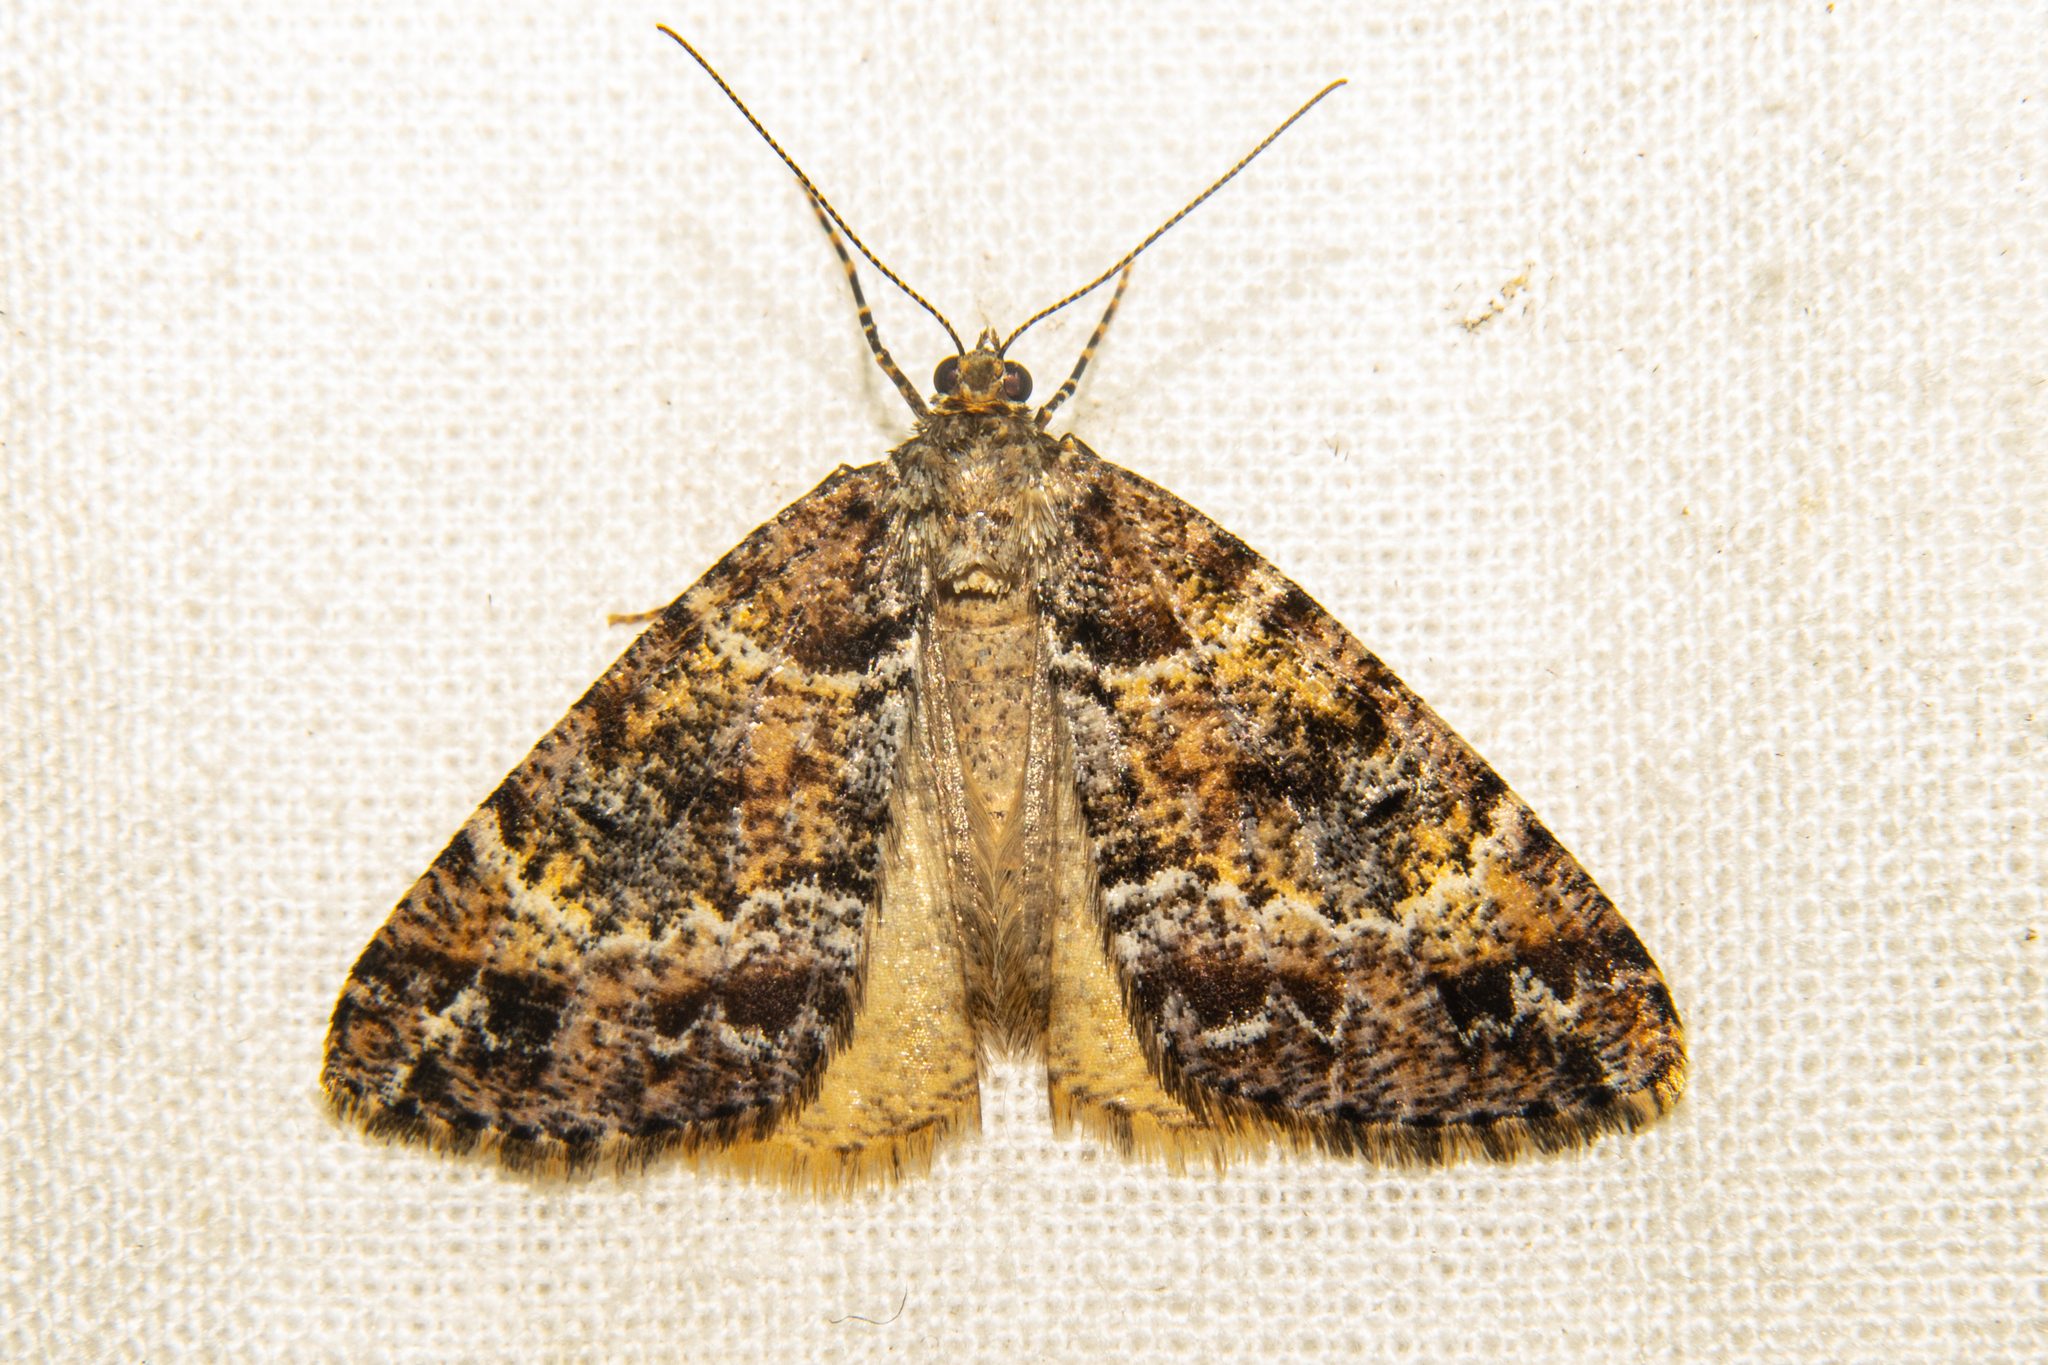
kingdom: Animalia
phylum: Arthropoda
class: Insecta
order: Lepidoptera
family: Geometridae
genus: Pseudocoremia
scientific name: Pseudocoremia productata
